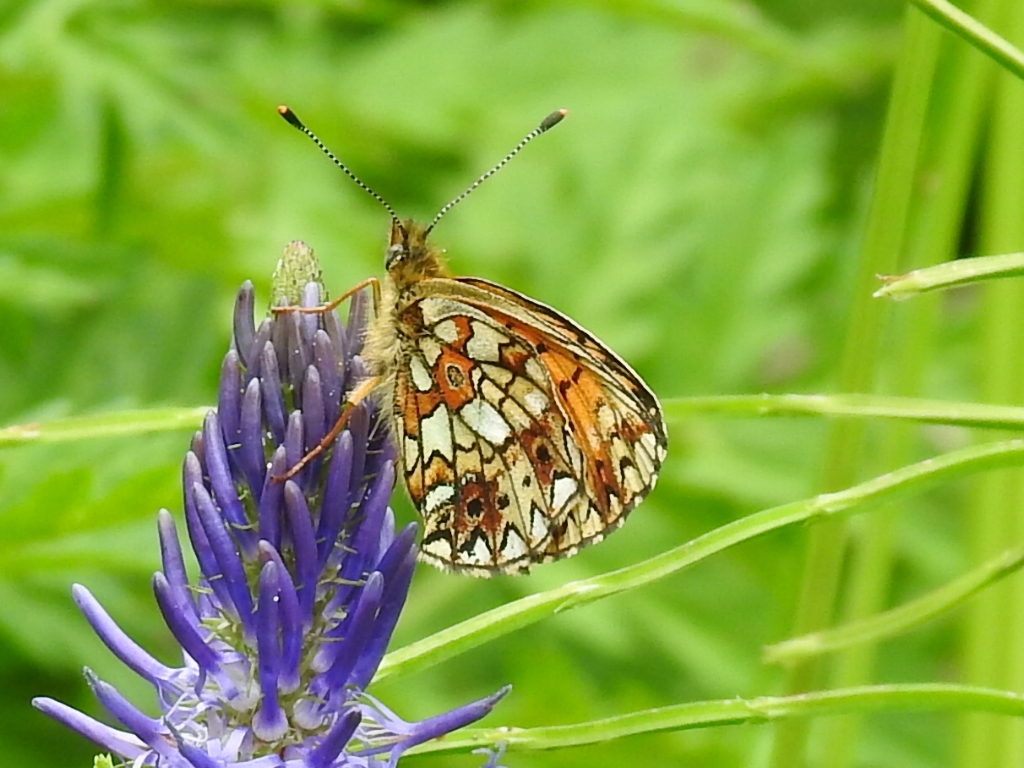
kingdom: Animalia
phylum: Arthropoda
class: Insecta
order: Lepidoptera
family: Nymphalidae
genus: Boloria
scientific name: Boloria selene
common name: Small pearl-bordered fritillary
